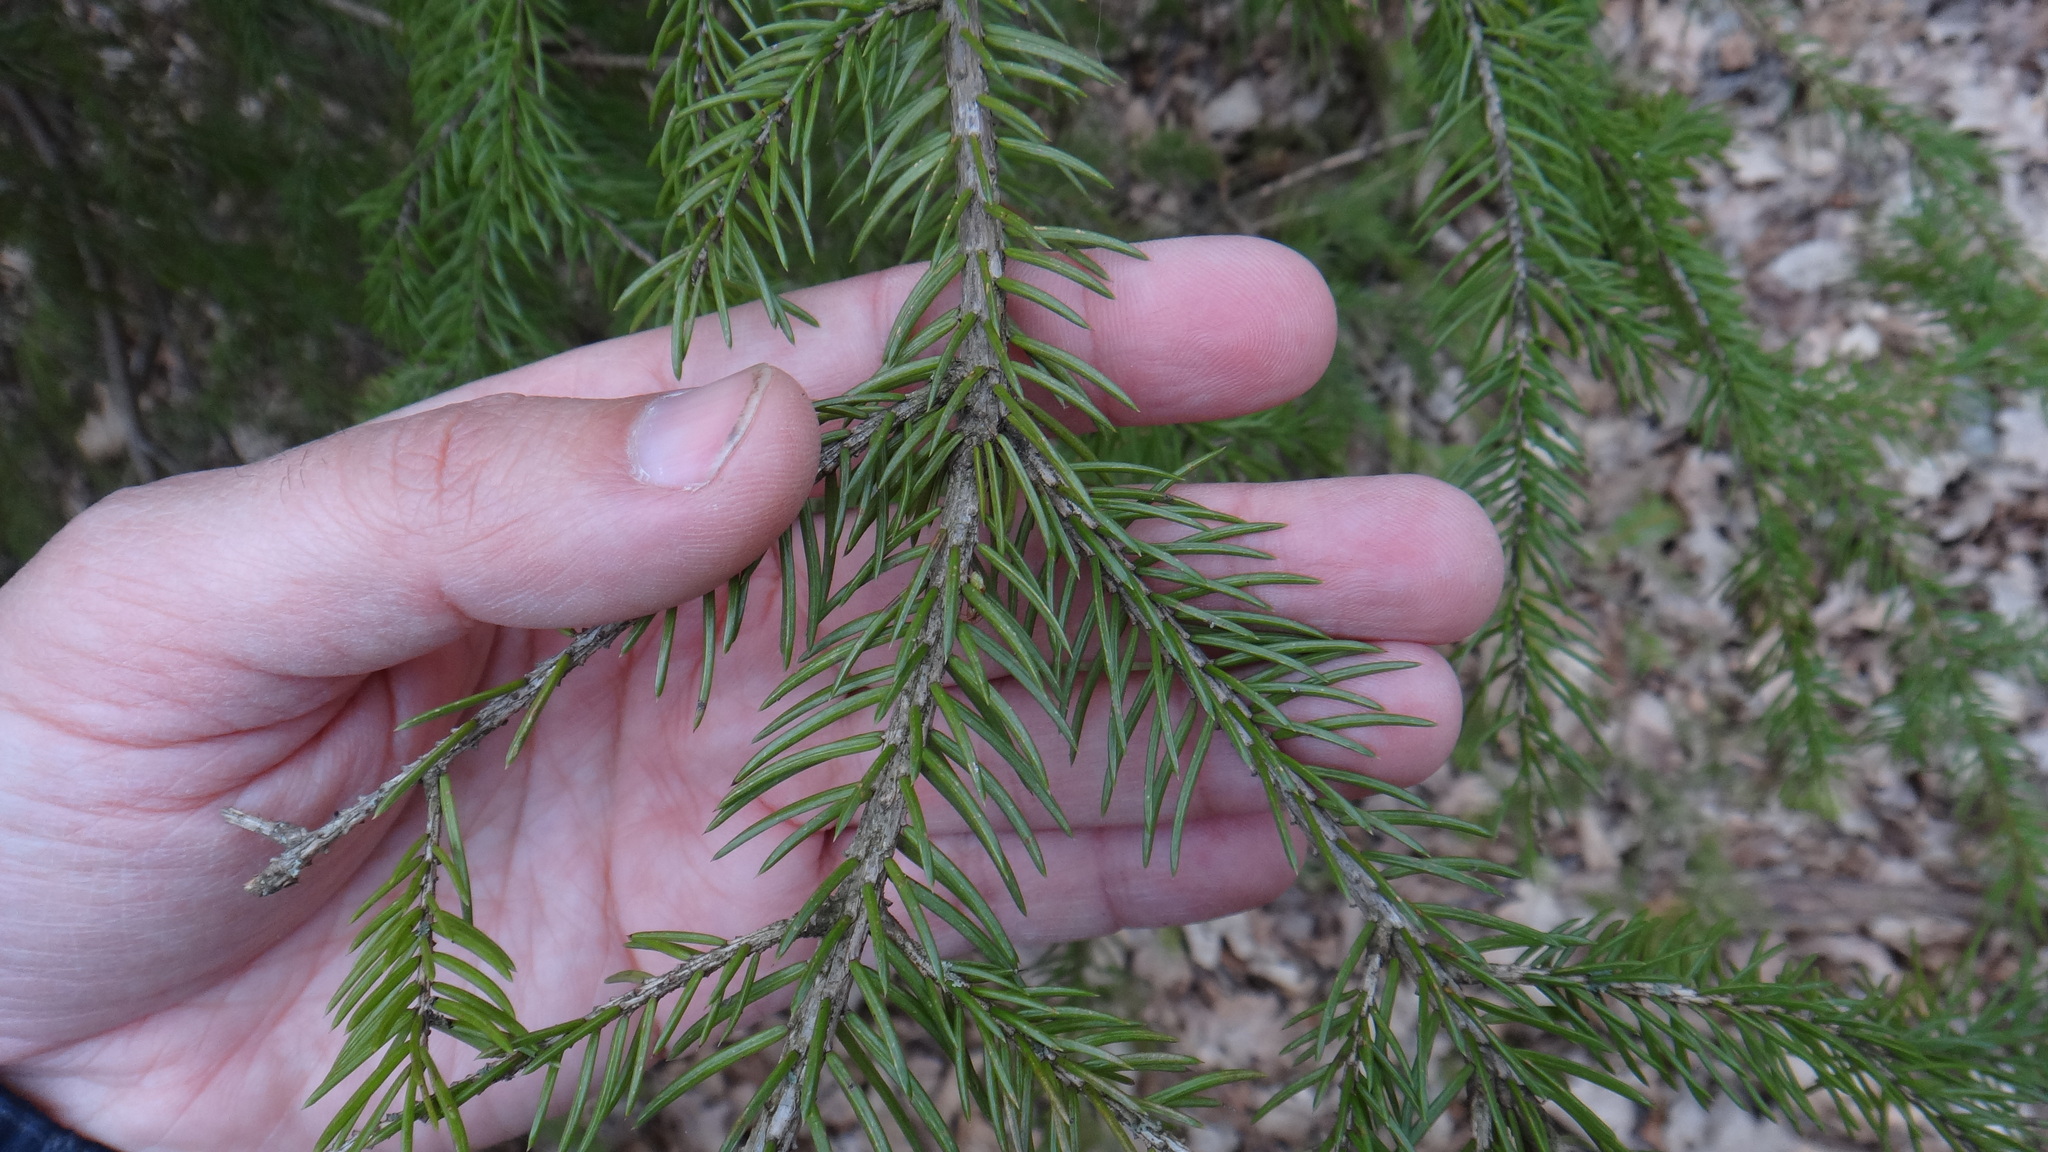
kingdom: Plantae
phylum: Tracheophyta
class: Pinopsida
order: Pinales
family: Pinaceae
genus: Picea
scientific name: Picea abies
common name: Norway spruce
